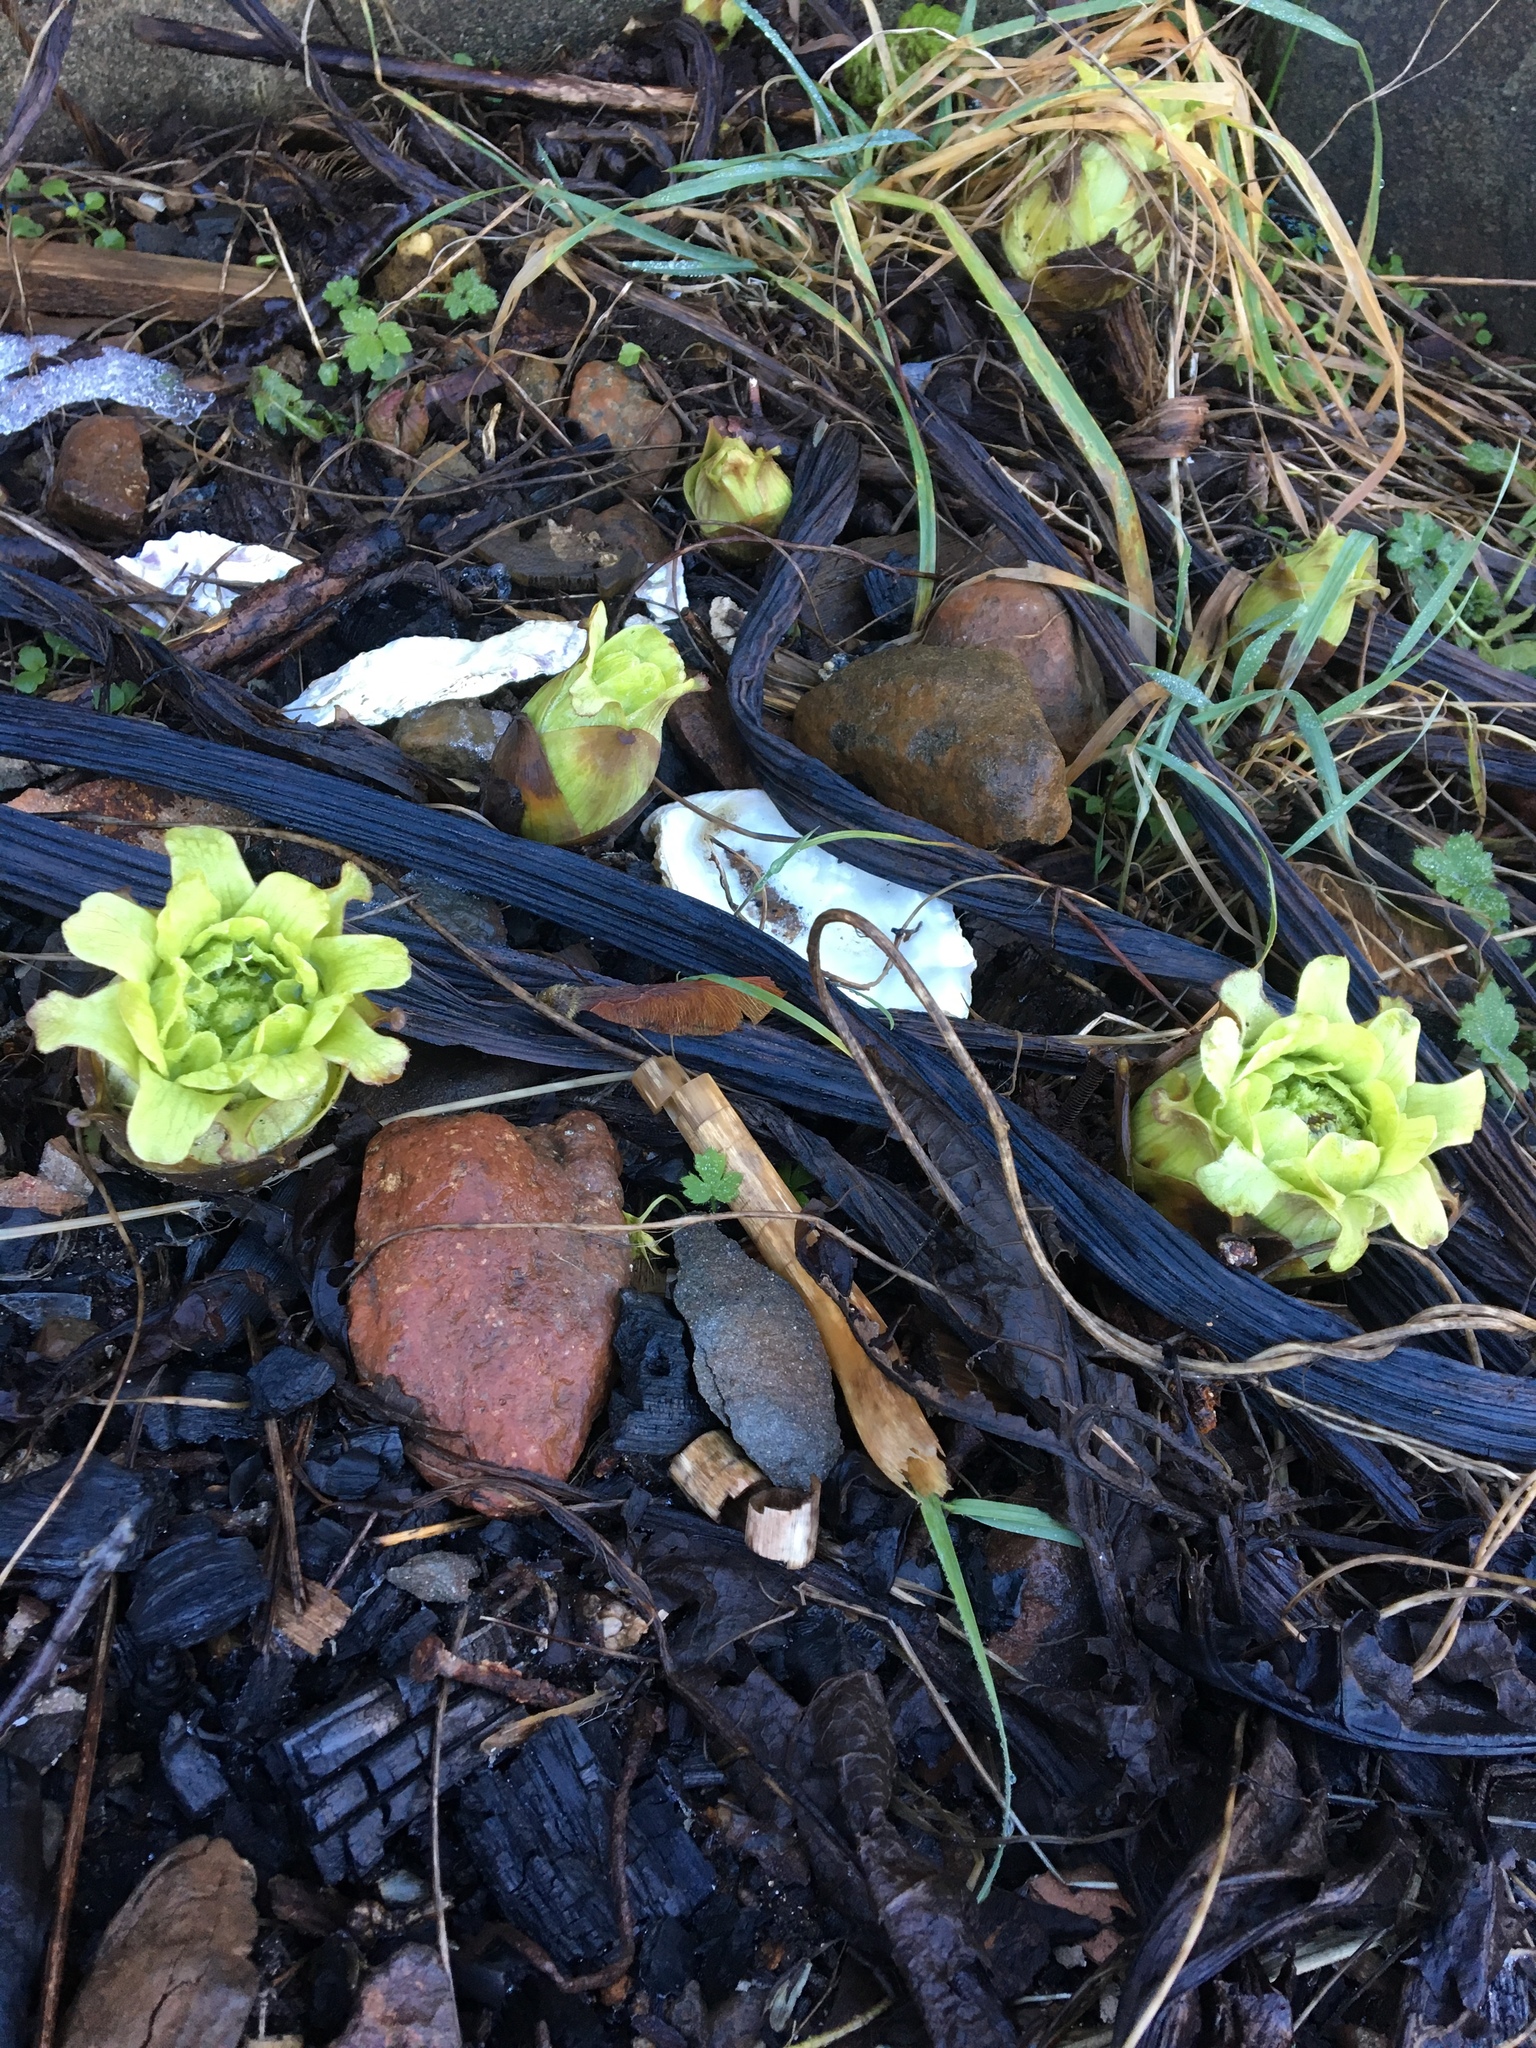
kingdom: Plantae
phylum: Tracheophyta
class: Magnoliopsida
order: Asterales
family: Asteraceae
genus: Petasites
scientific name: Petasites japonicus
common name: Giant butterbur
